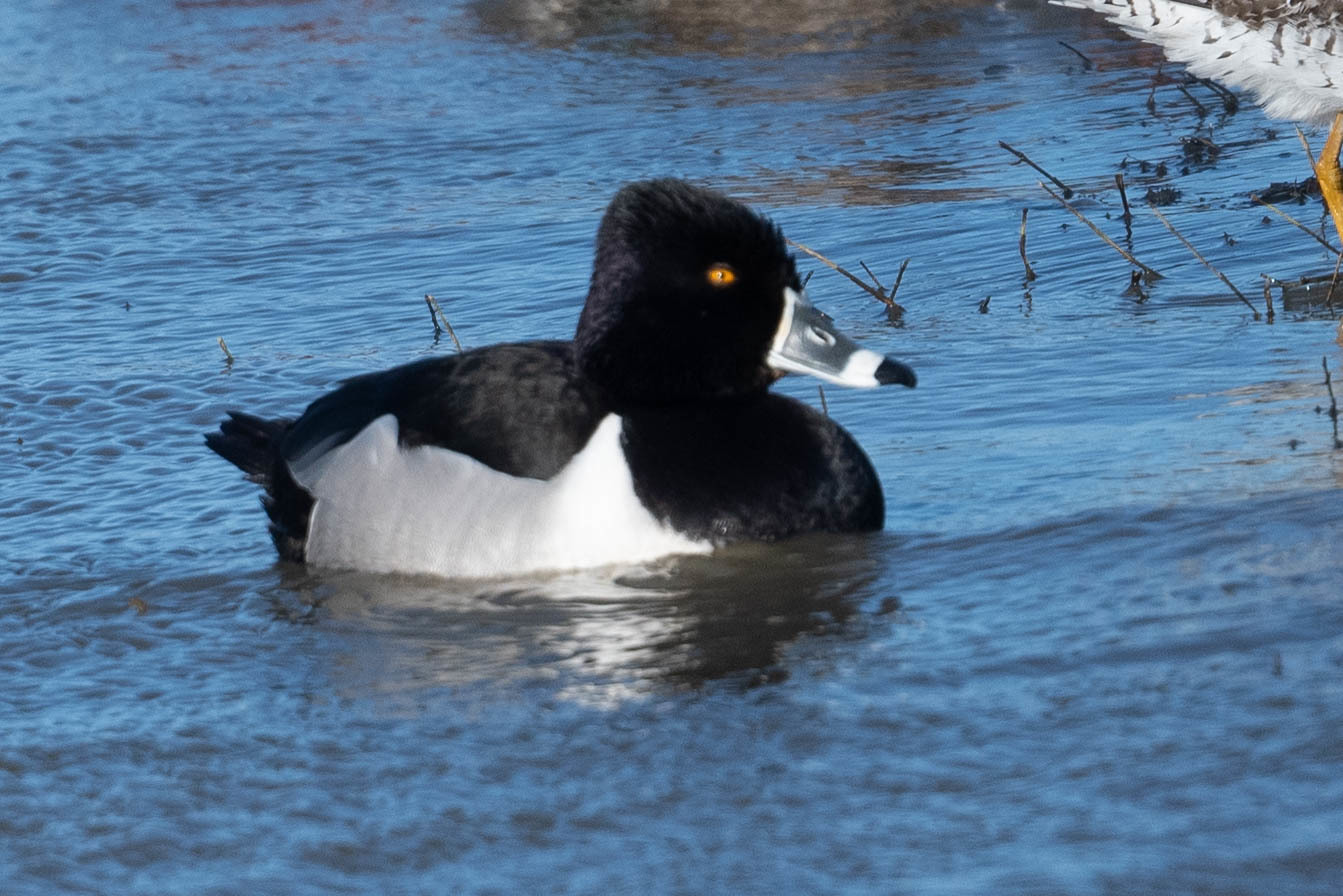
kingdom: Animalia
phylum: Chordata
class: Aves
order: Anseriformes
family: Anatidae
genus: Aythya
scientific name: Aythya collaris
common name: Ring-necked duck
